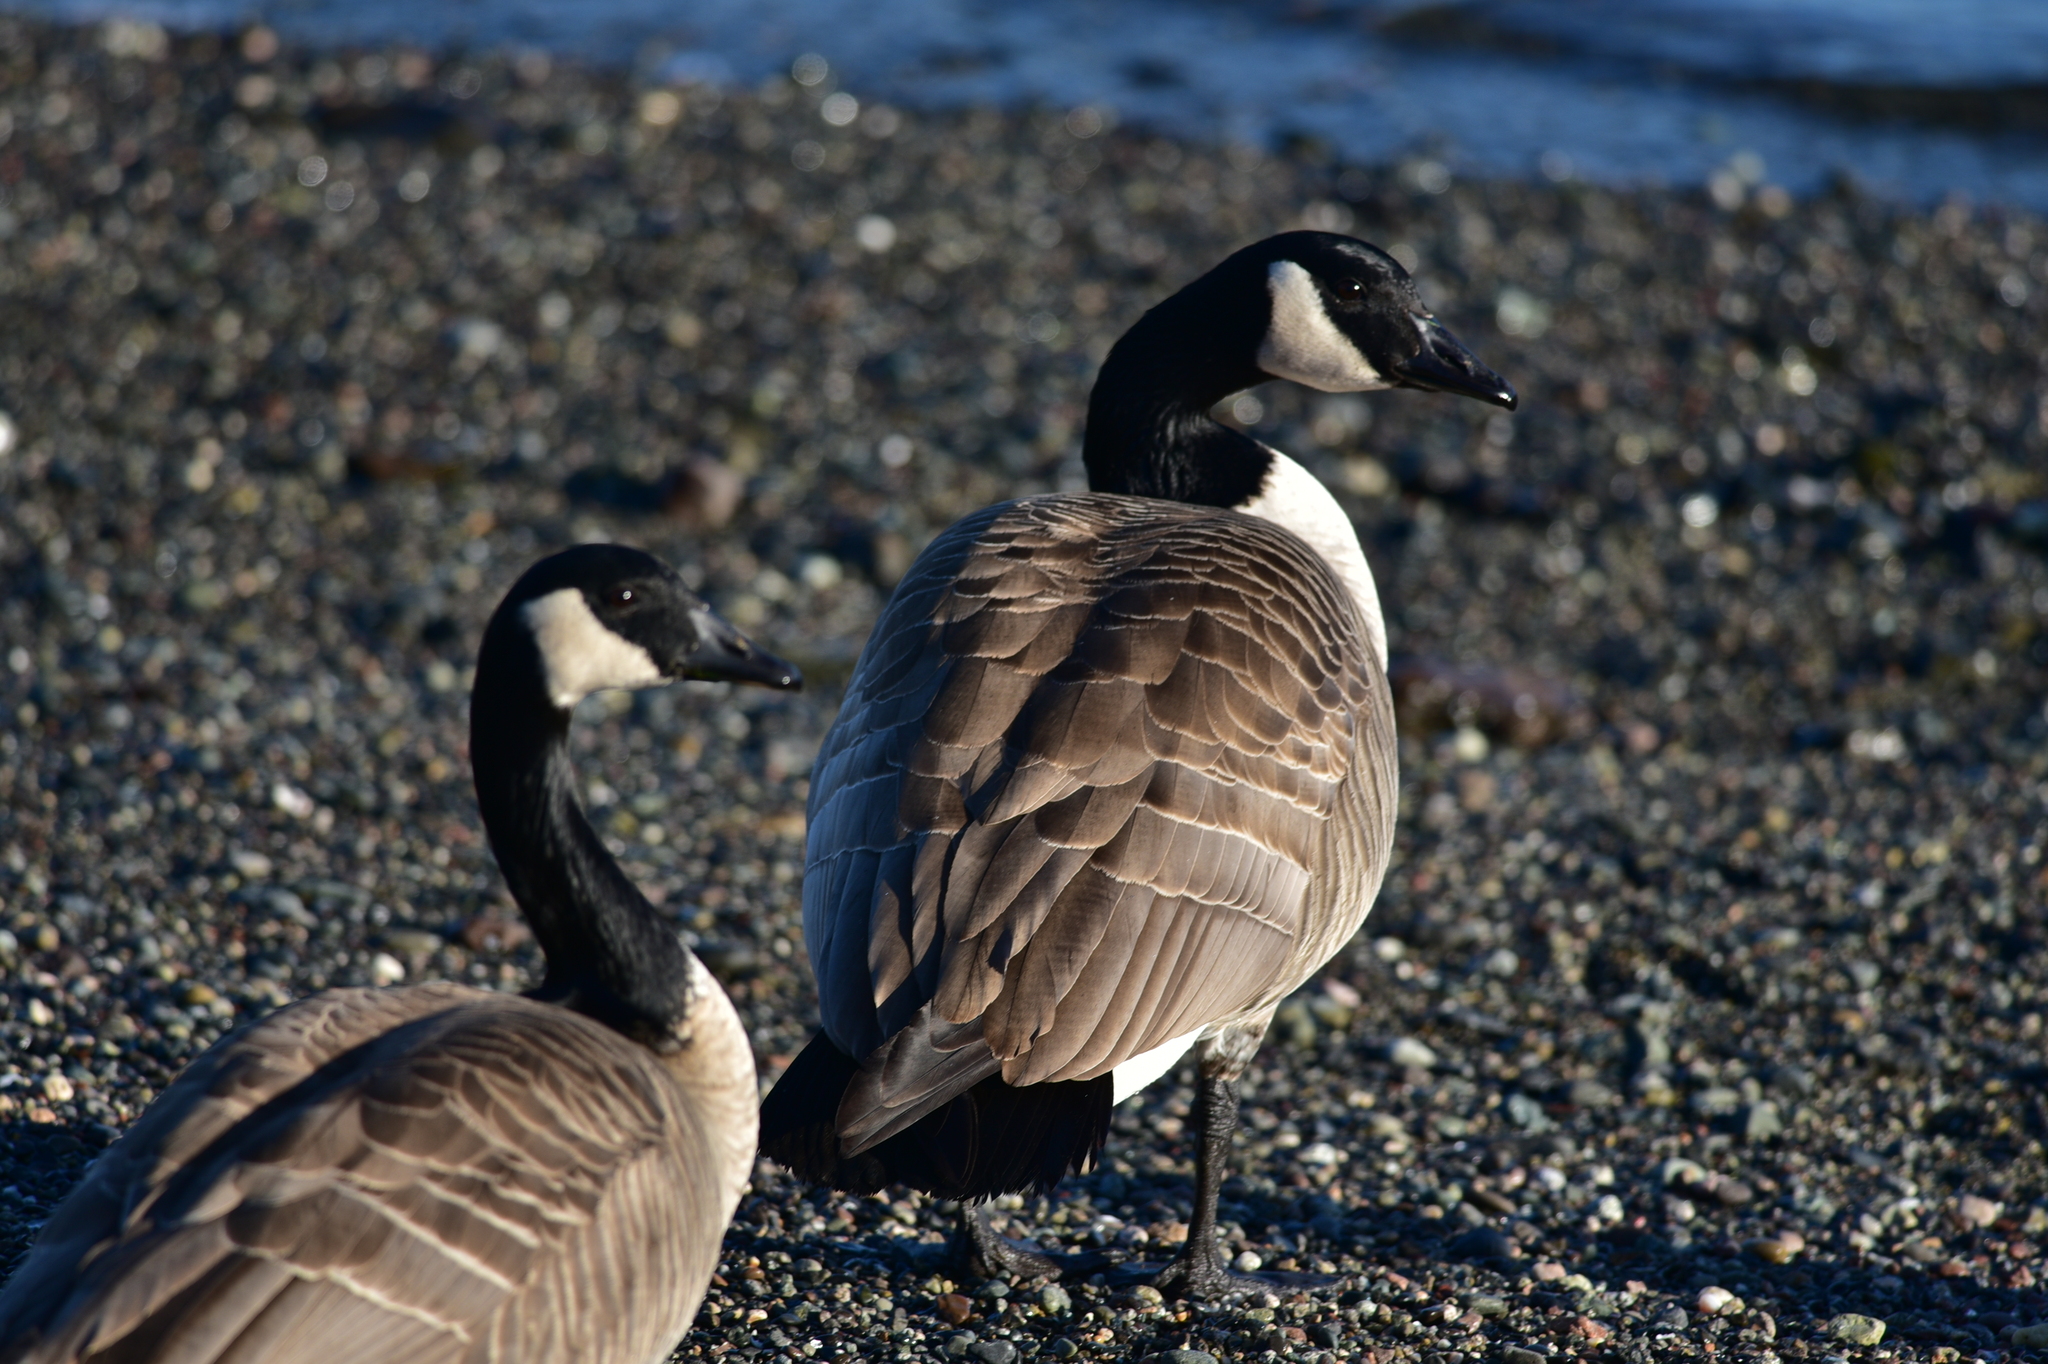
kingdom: Animalia
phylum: Chordata
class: Aves
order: Anseriformes
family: Anatidae
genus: Branta
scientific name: Branta canadensis
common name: Canada goose
